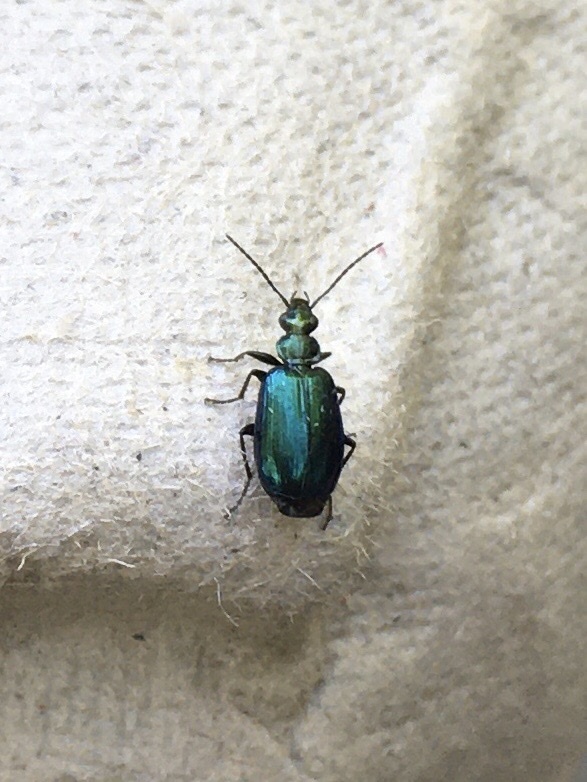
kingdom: Animalia
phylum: Arthropoda
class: Insecta
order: Coleoptera
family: Carabidae
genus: Lebia
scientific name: Lebia viridis
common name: Flower lebia beetle
